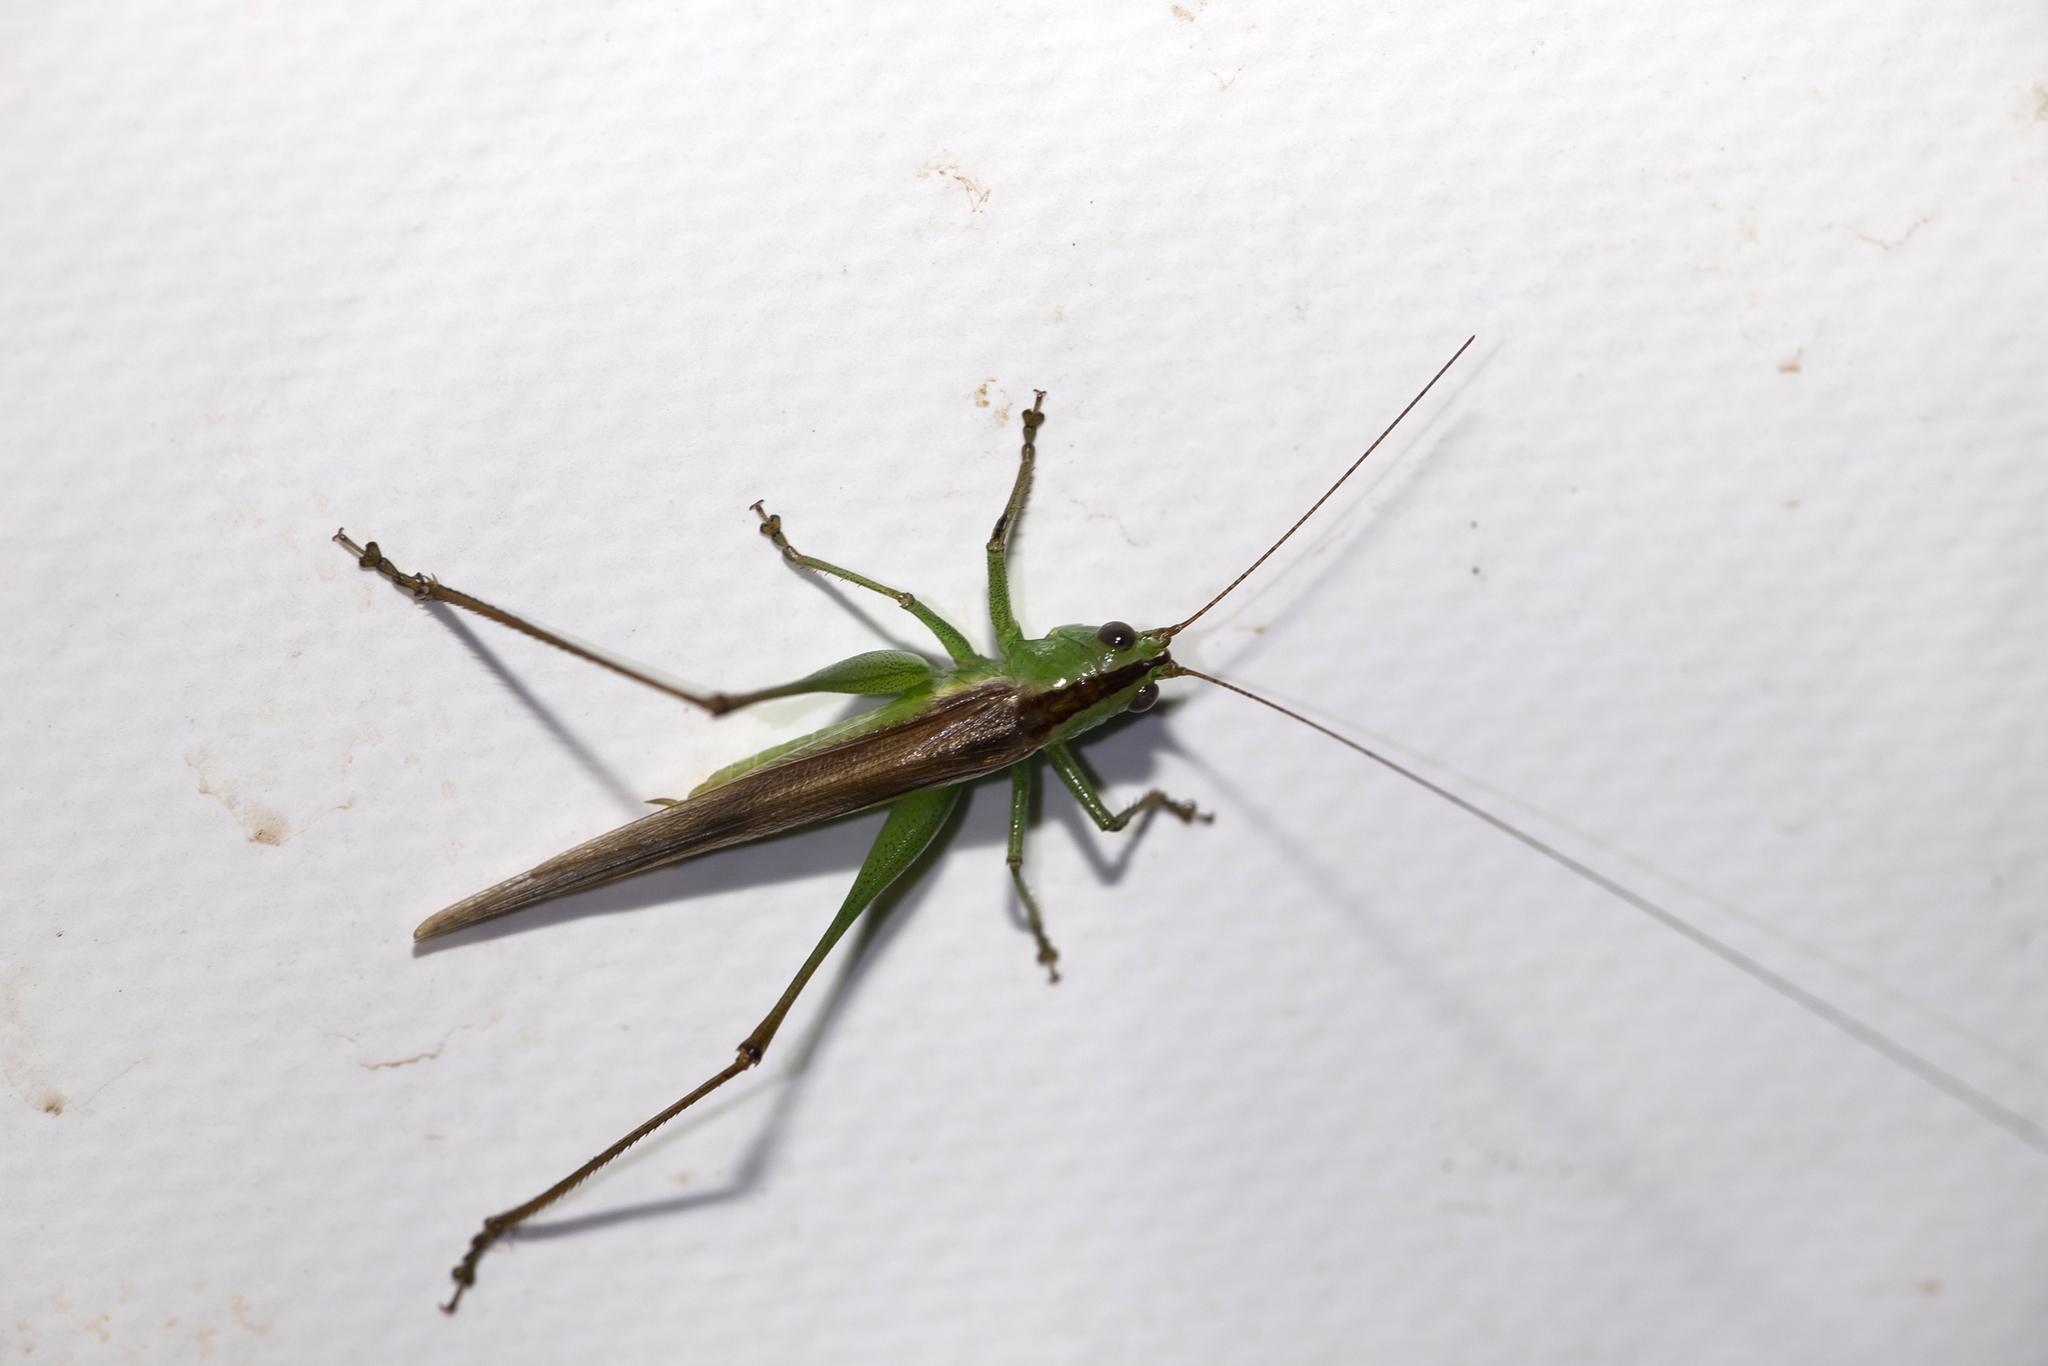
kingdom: Animalia
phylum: Arthropoda
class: Insecta
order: Orthoptera
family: Tettigoniidae
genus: Conocephalus
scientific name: Conocephalus redtenbacheri
